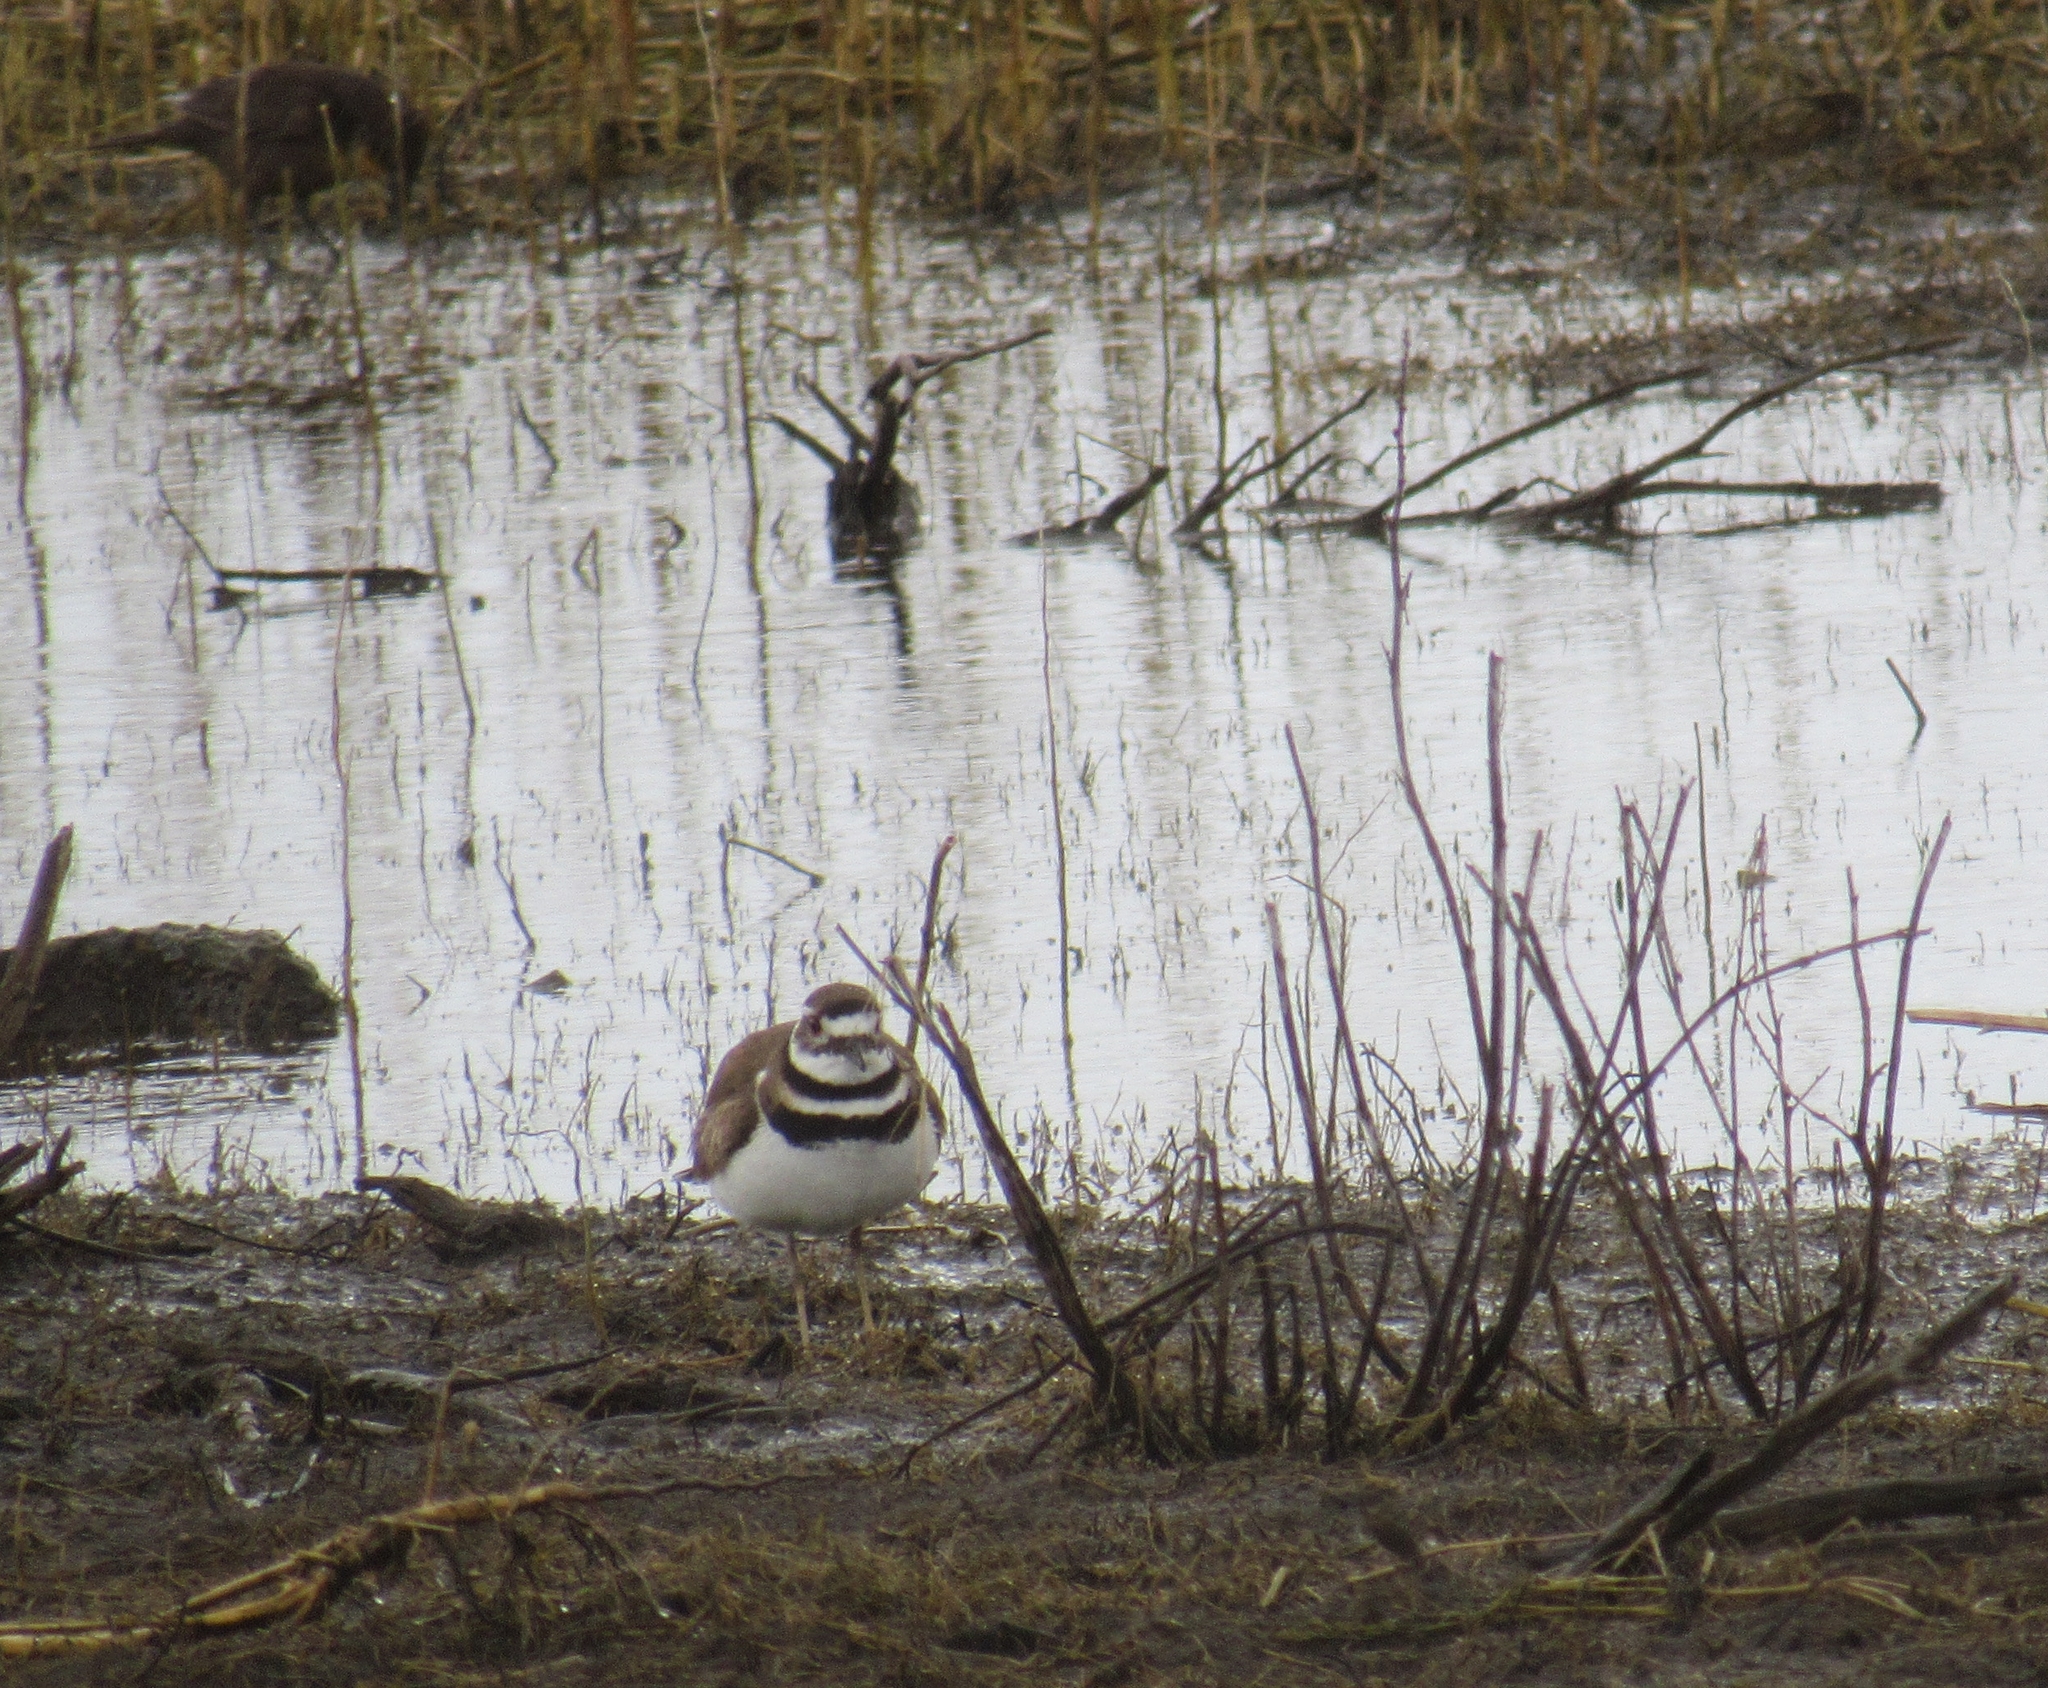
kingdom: Animalia
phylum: Chordata
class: Aves
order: Charadriiformes
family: Charadriidae
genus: Charadrius
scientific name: Charadrius vociferus
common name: Killdeer
